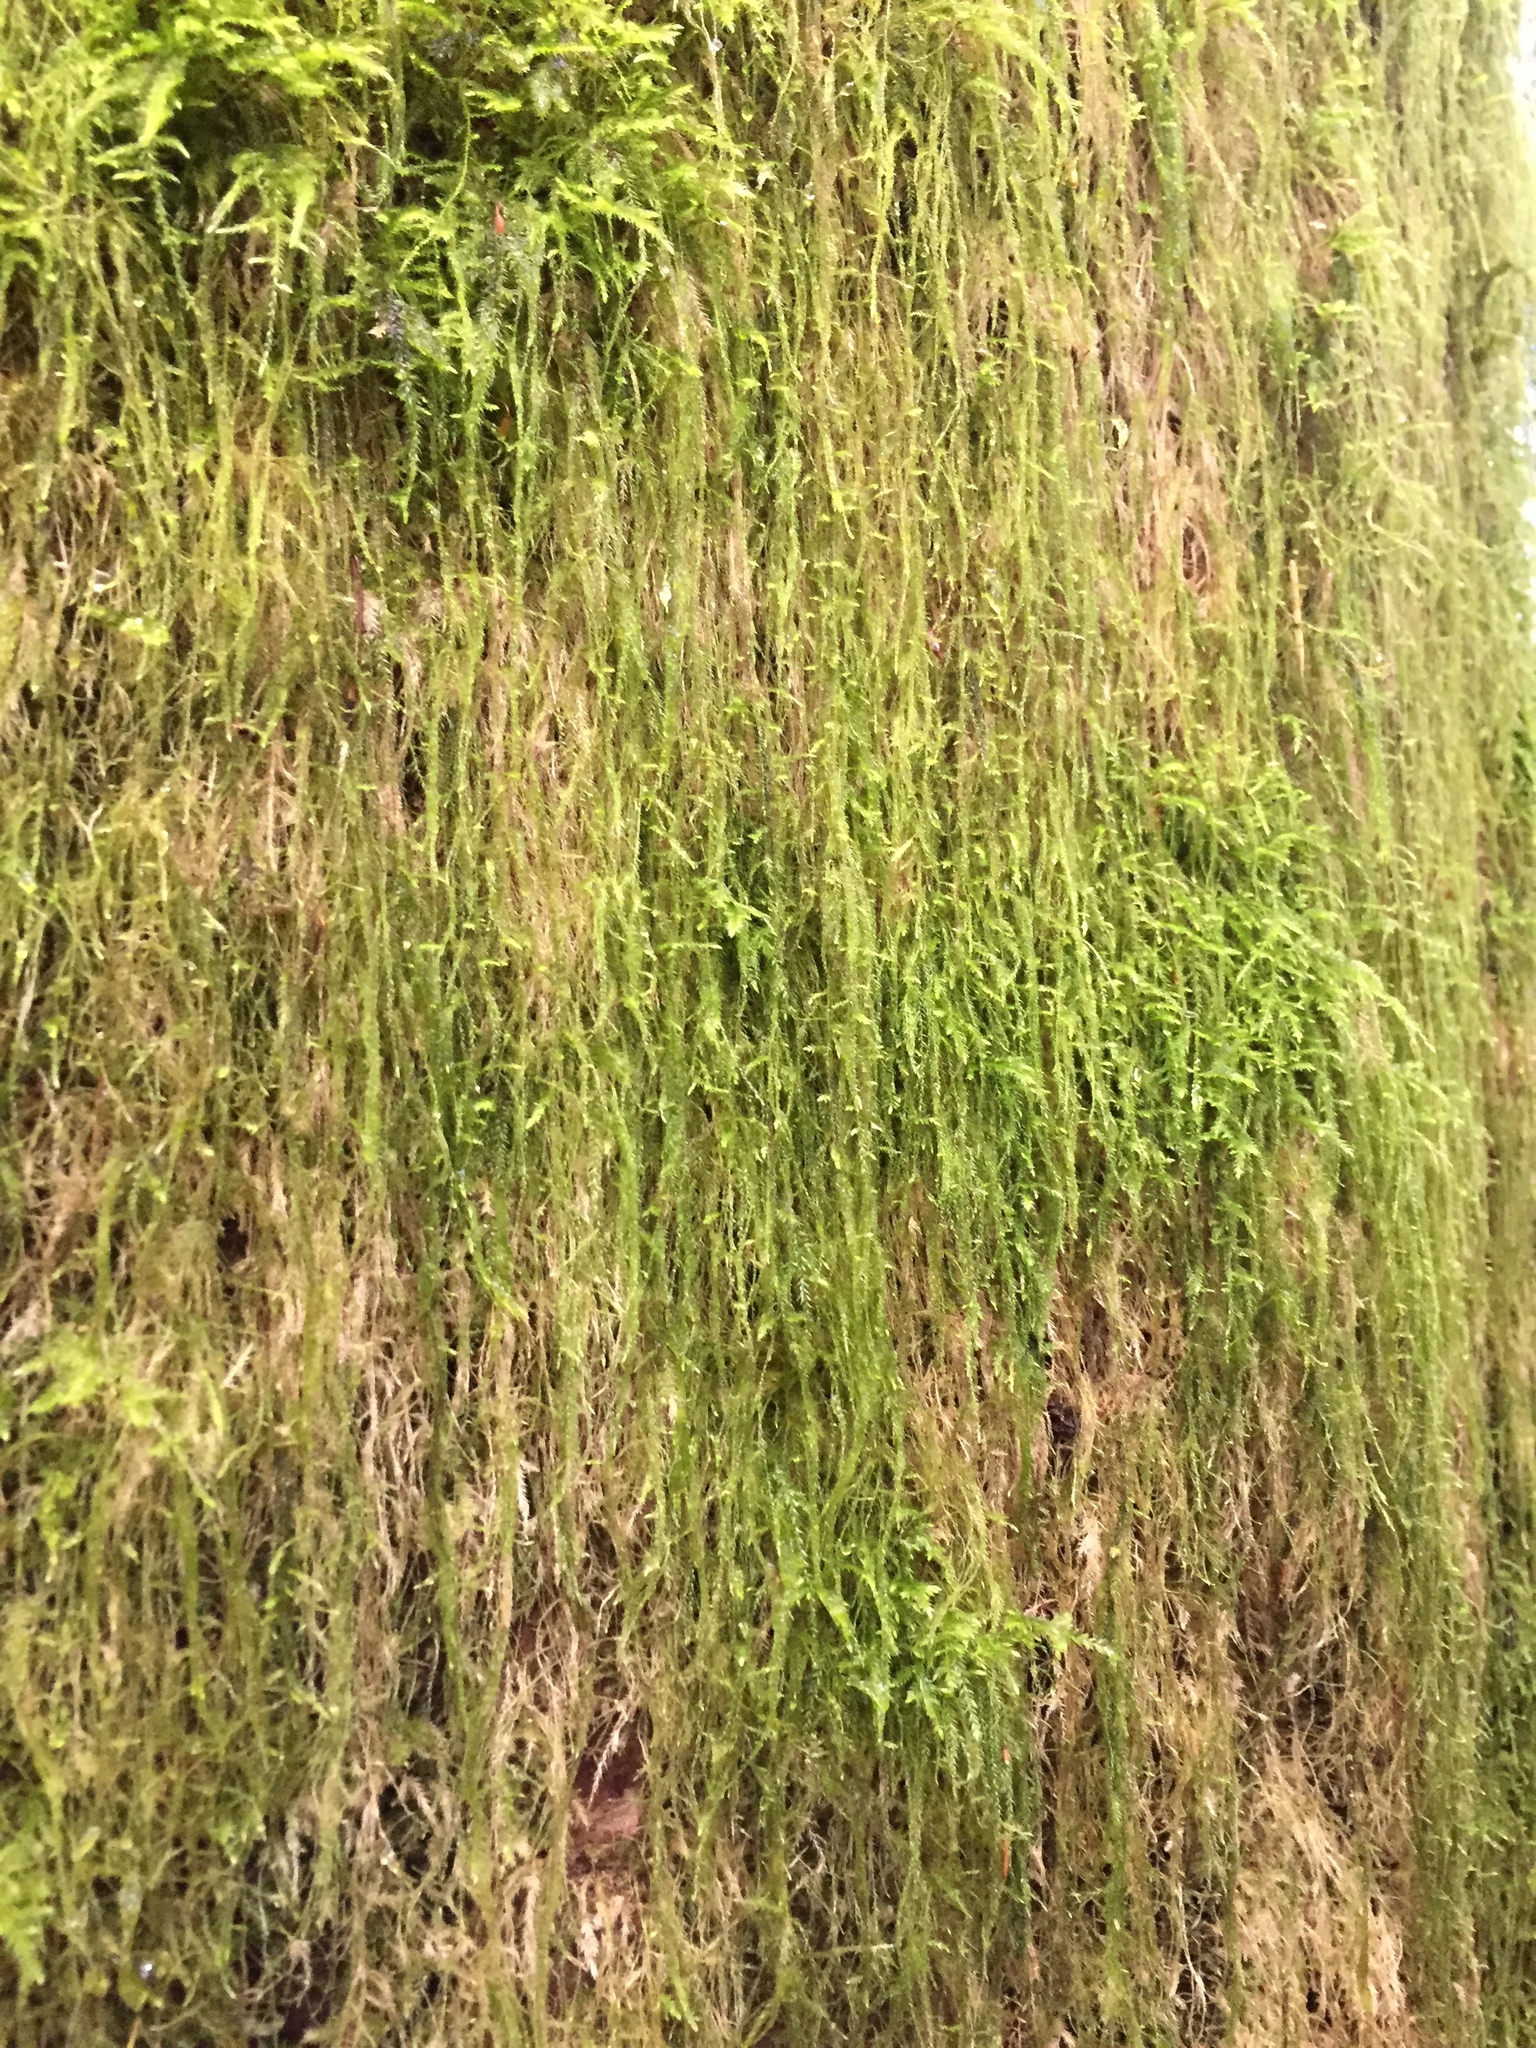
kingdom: Plantae
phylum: Bryophyta
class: Bryopsida
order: Hypnales
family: Lembophyllaceae
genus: Pseudisothecium
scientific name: Pseudisothecium stoloniferum
